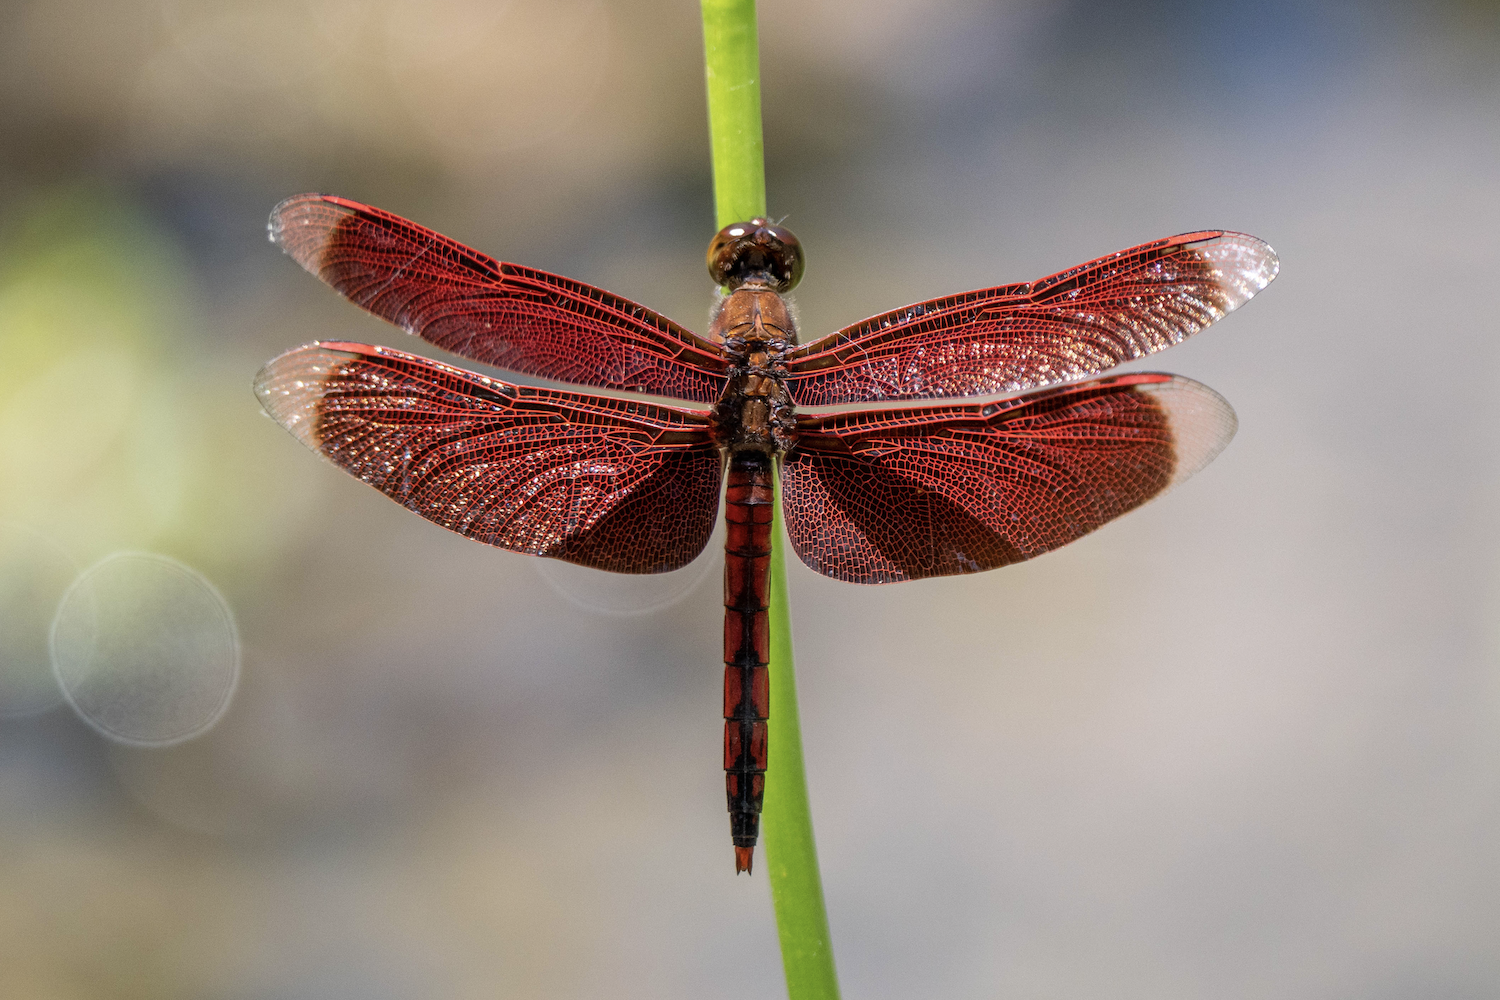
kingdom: Animalia
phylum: Arthropoda
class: Insecta
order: Odonata
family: Libellulidae
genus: Neurothemis
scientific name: Neurothemis taiwanensis
